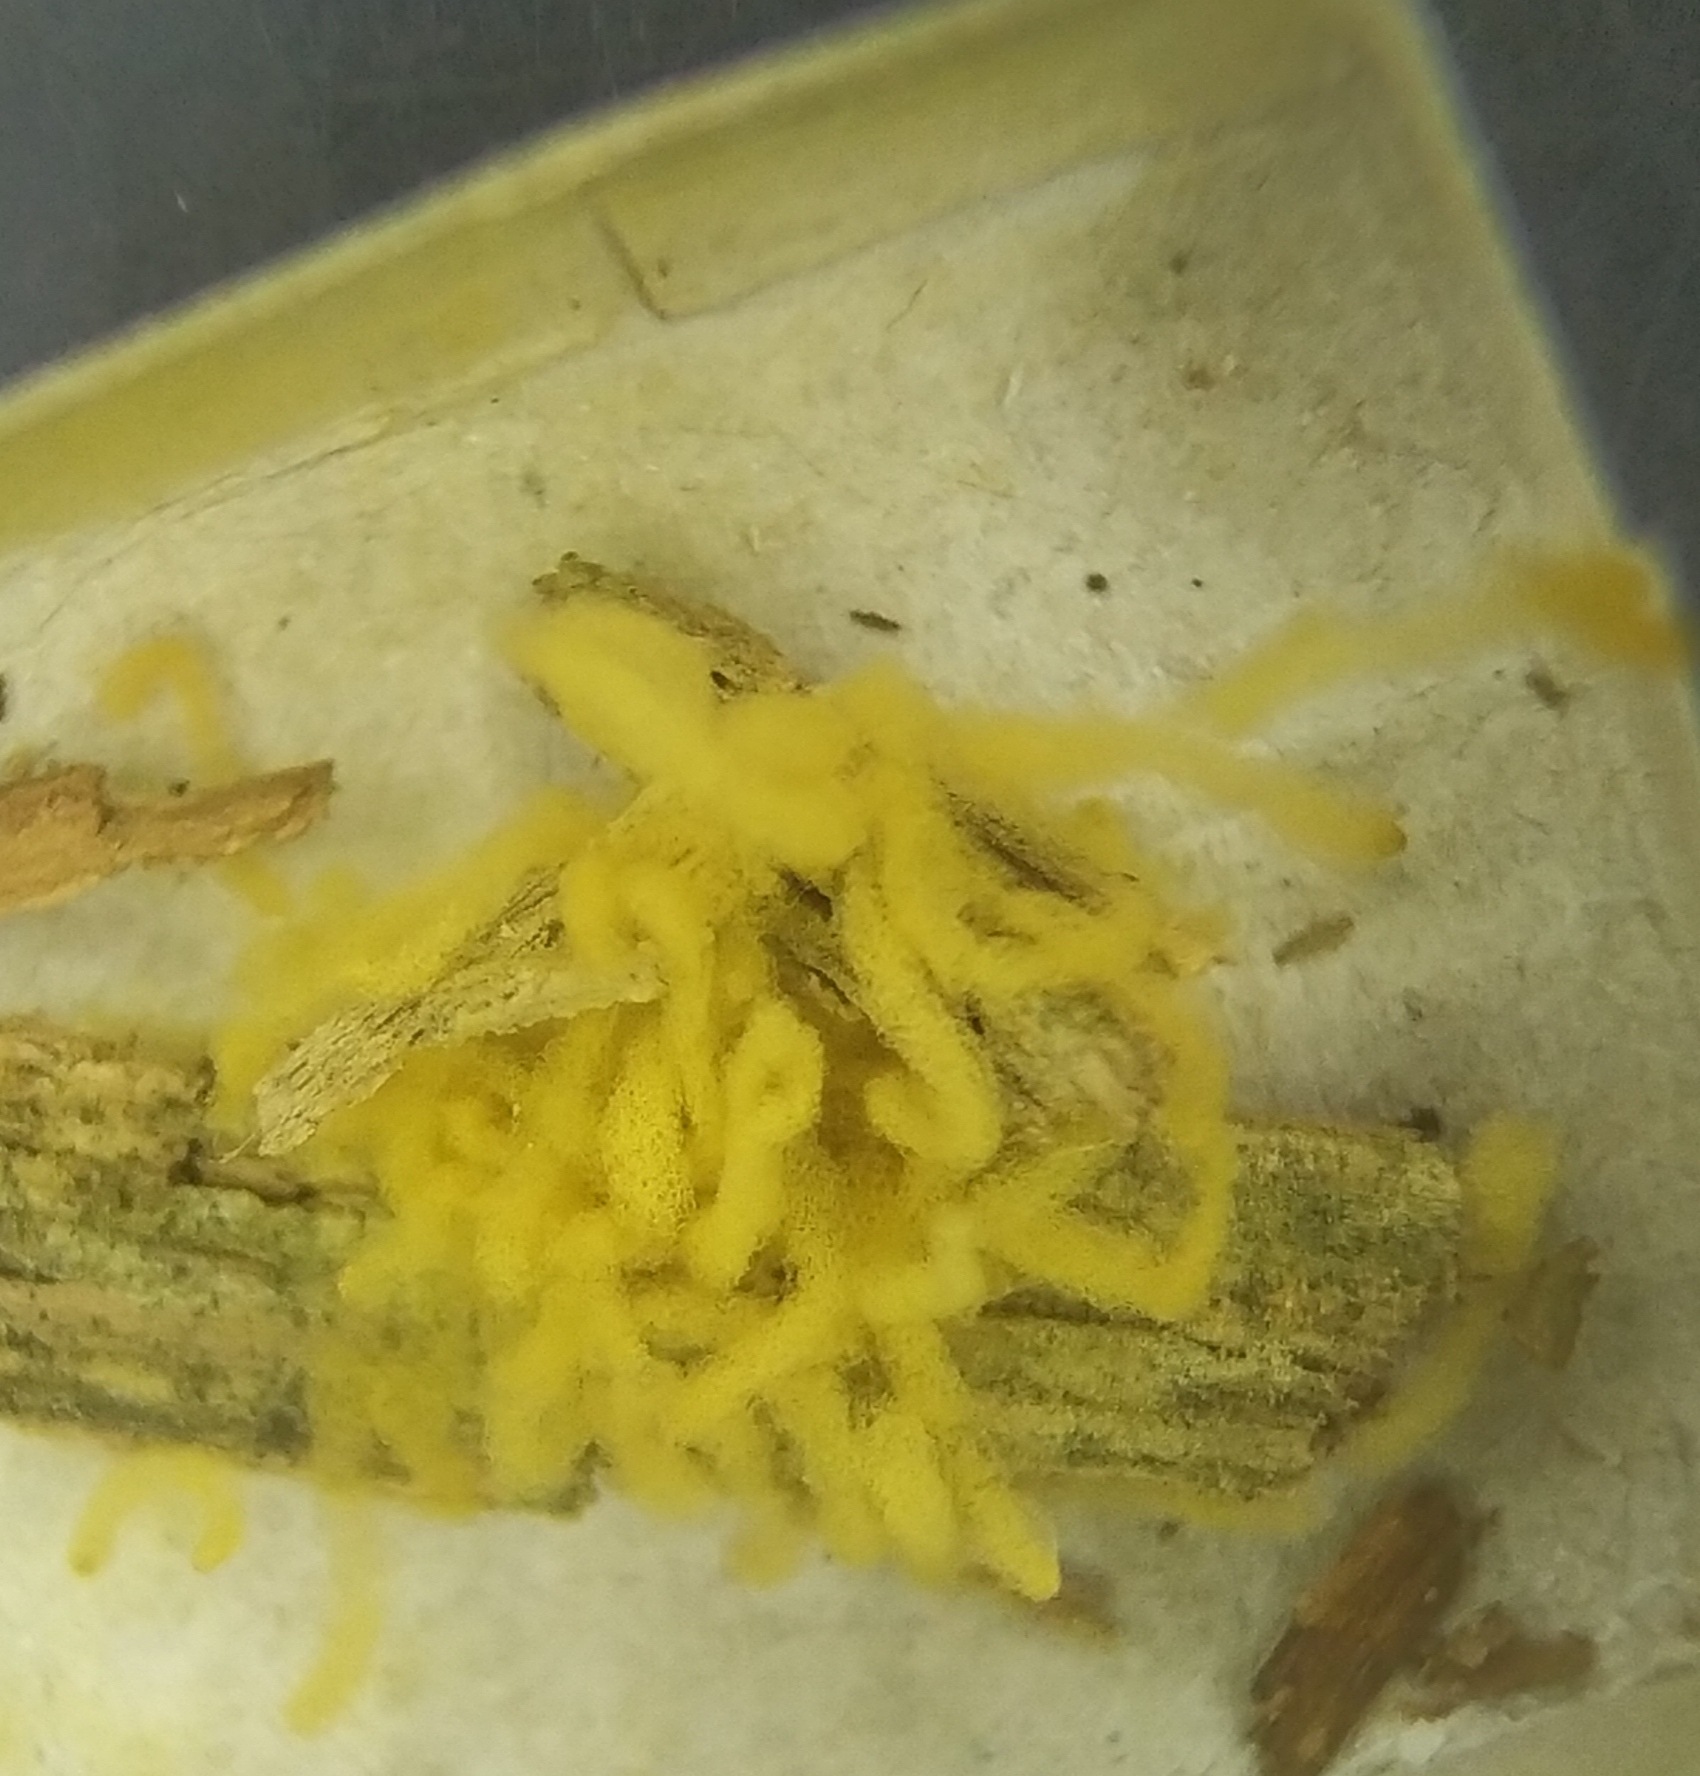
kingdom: Protozoa
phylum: Mycetozoa
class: Myxomycetes
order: Trichiales
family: Arcyriaceae
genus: Arcyria
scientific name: Arcyria obvelata
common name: Yellow carnival candy slime
